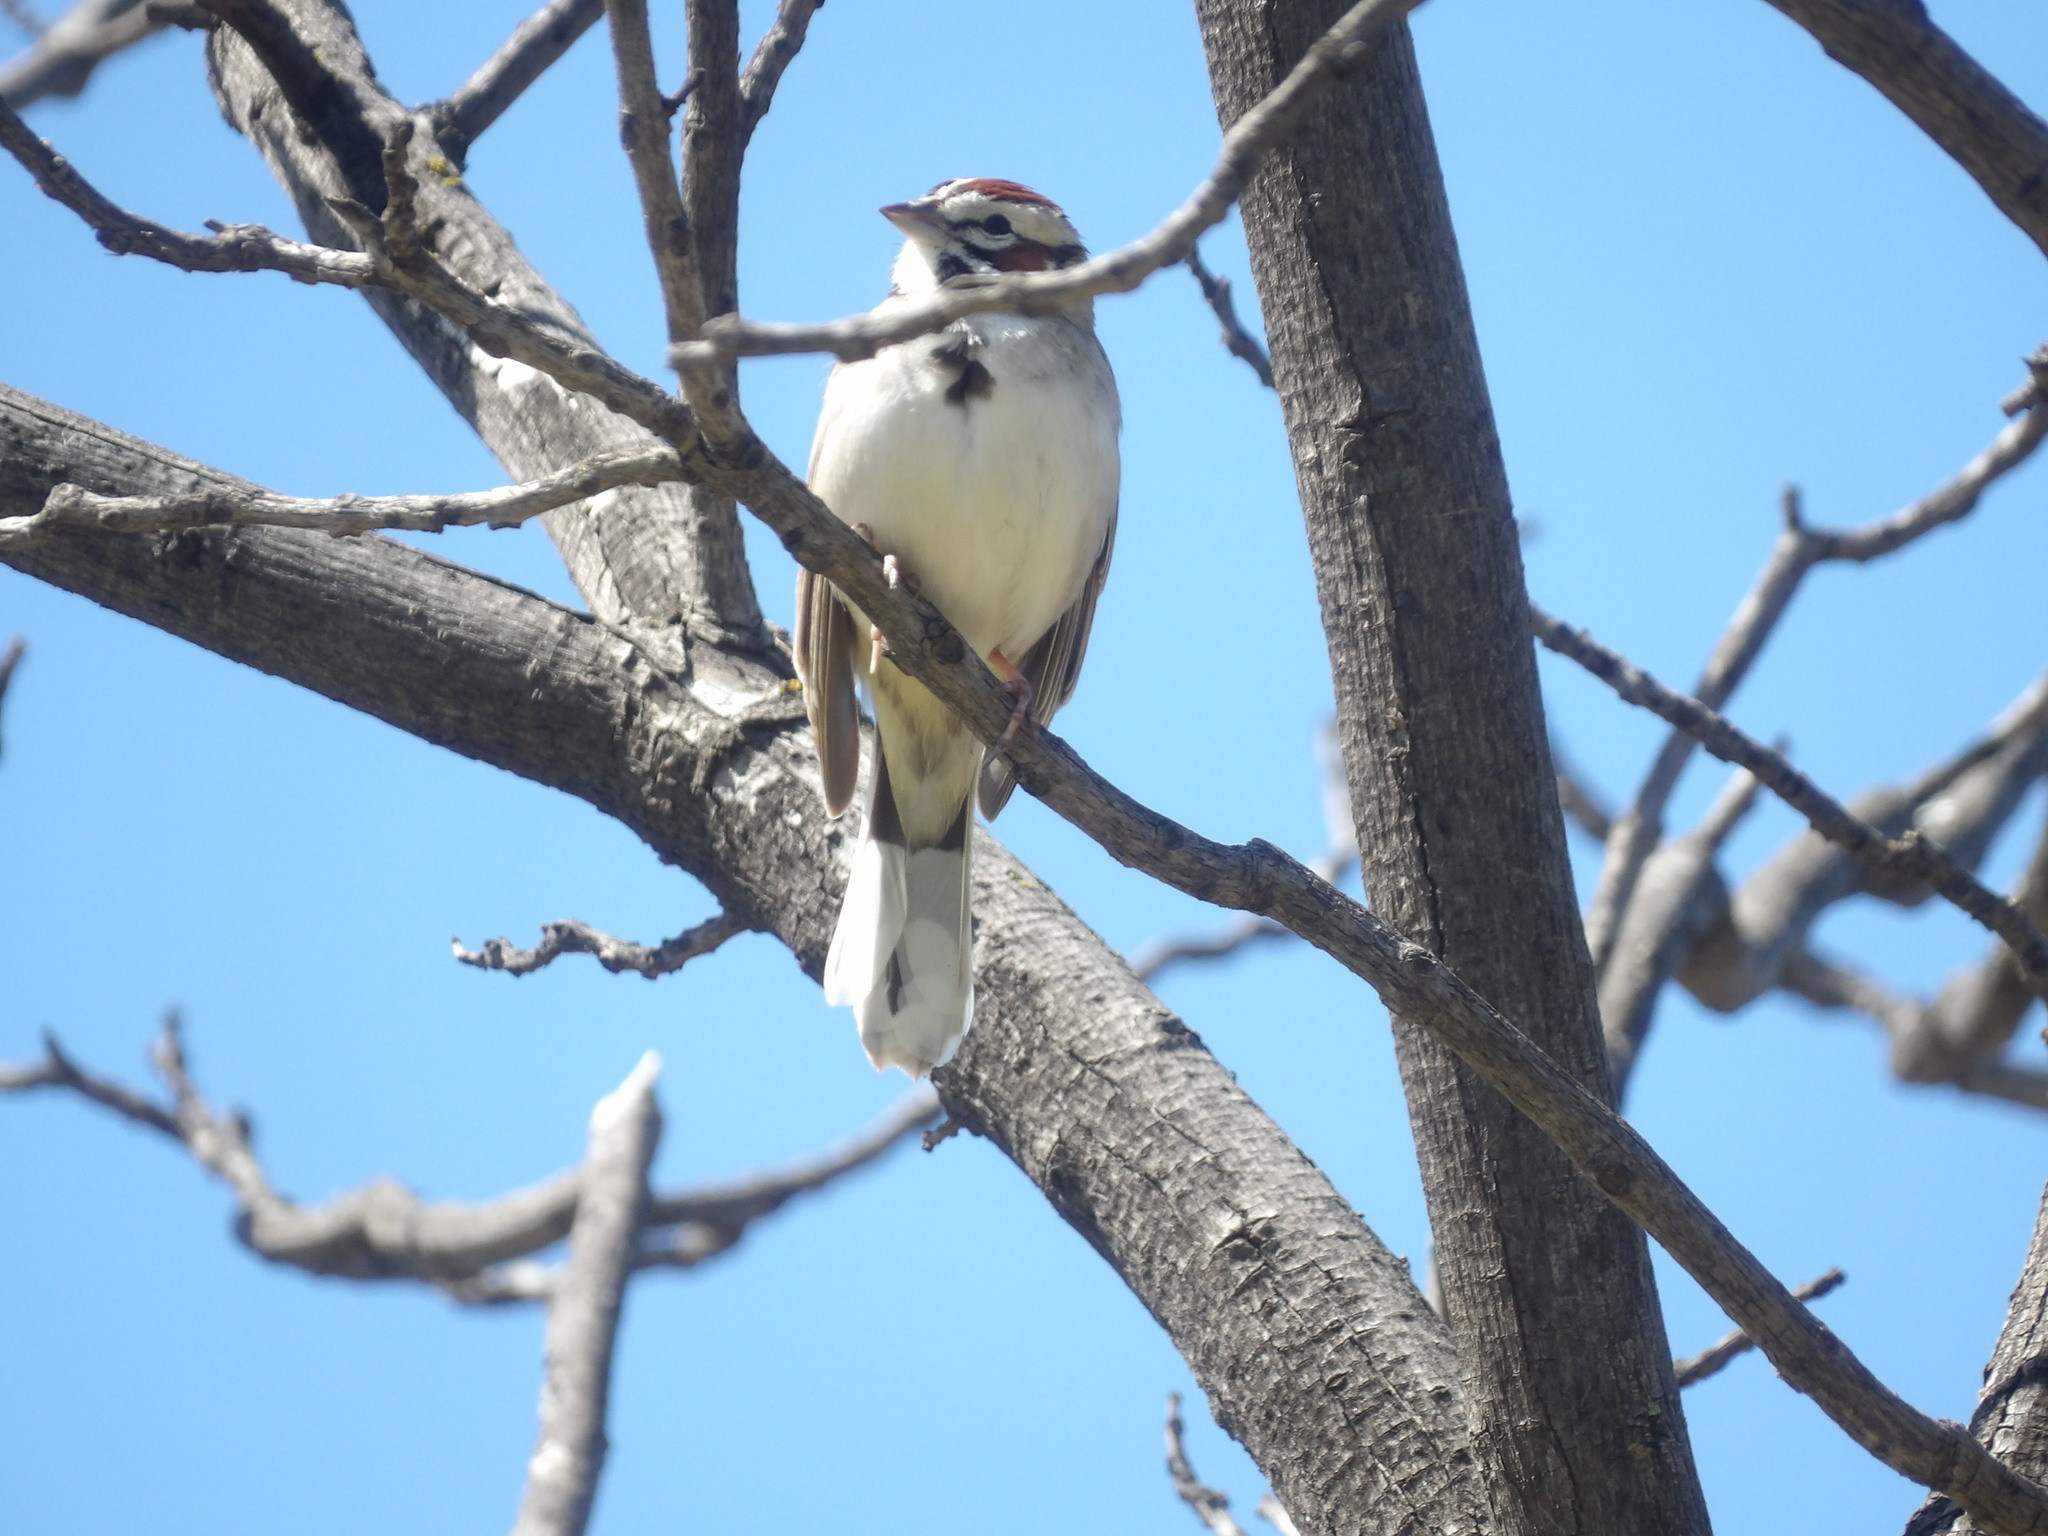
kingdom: Animalia
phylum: Chordata
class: Aves
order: Passeriformes
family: Passerellidae
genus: Chondestes
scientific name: Chondestes grammacus
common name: Lark sparrow
